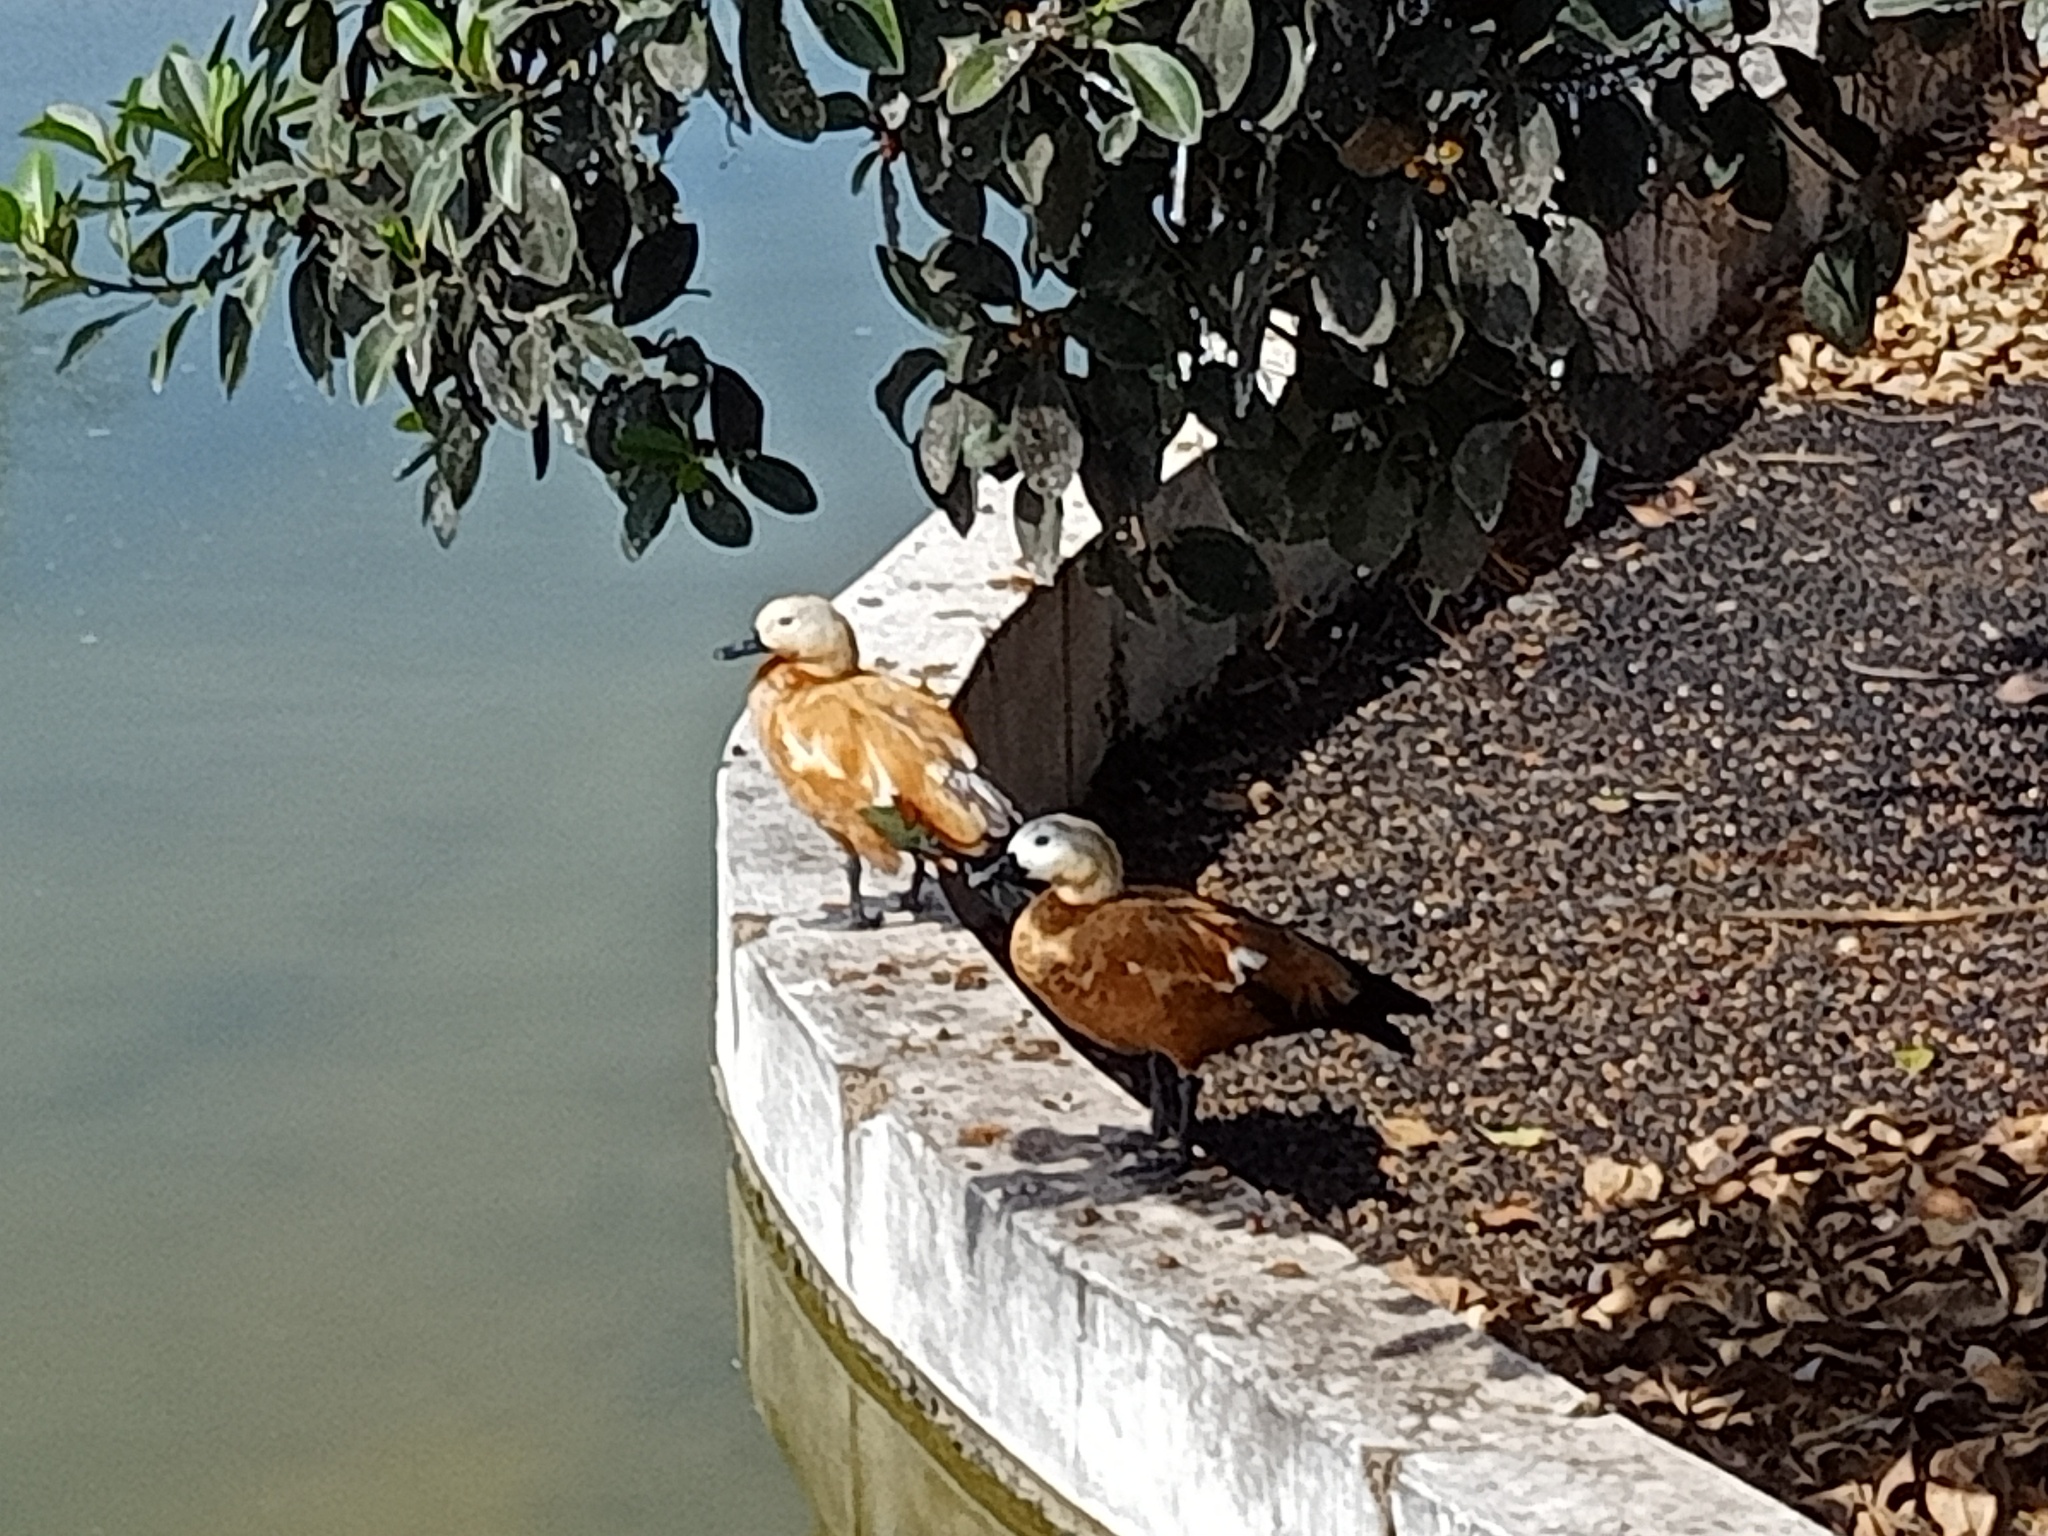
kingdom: Animalia
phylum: Chordata
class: Aves
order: Anseriformes
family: Anatidae
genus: Tadorna
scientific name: Tadorna ferruginea
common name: Ruddy shelduck
